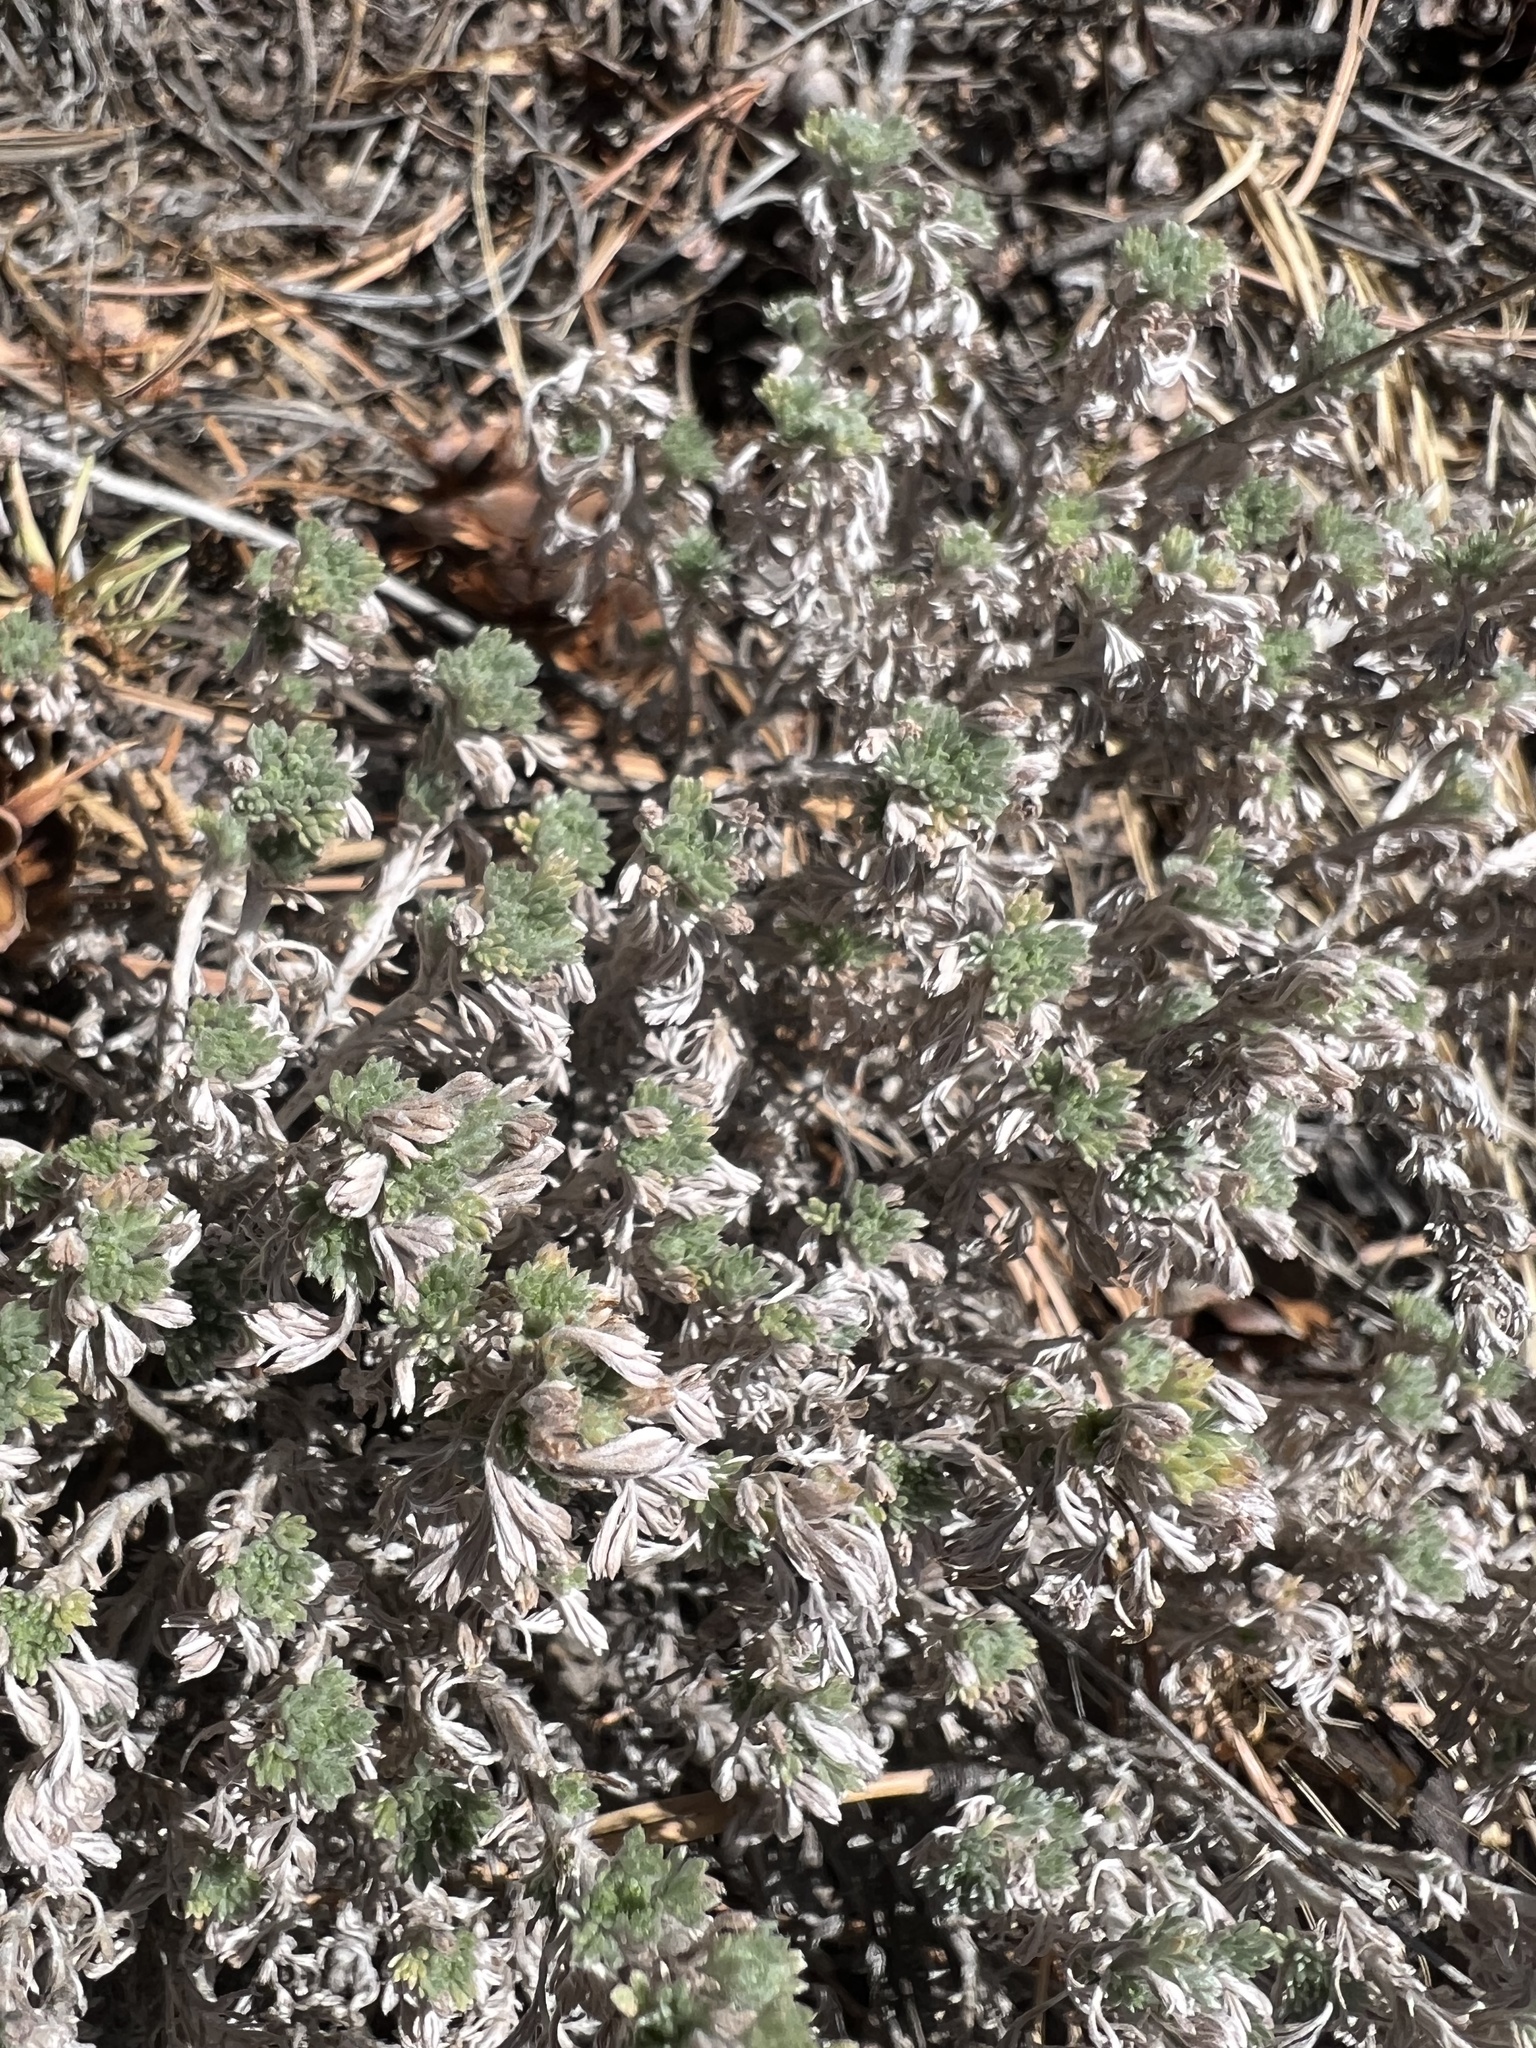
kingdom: Plantae
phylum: Tracheophyta
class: Magnoliopsida
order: Asterales
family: Asteraceae
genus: Artemisia
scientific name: Artemisia frigida
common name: Prairie sagewort
